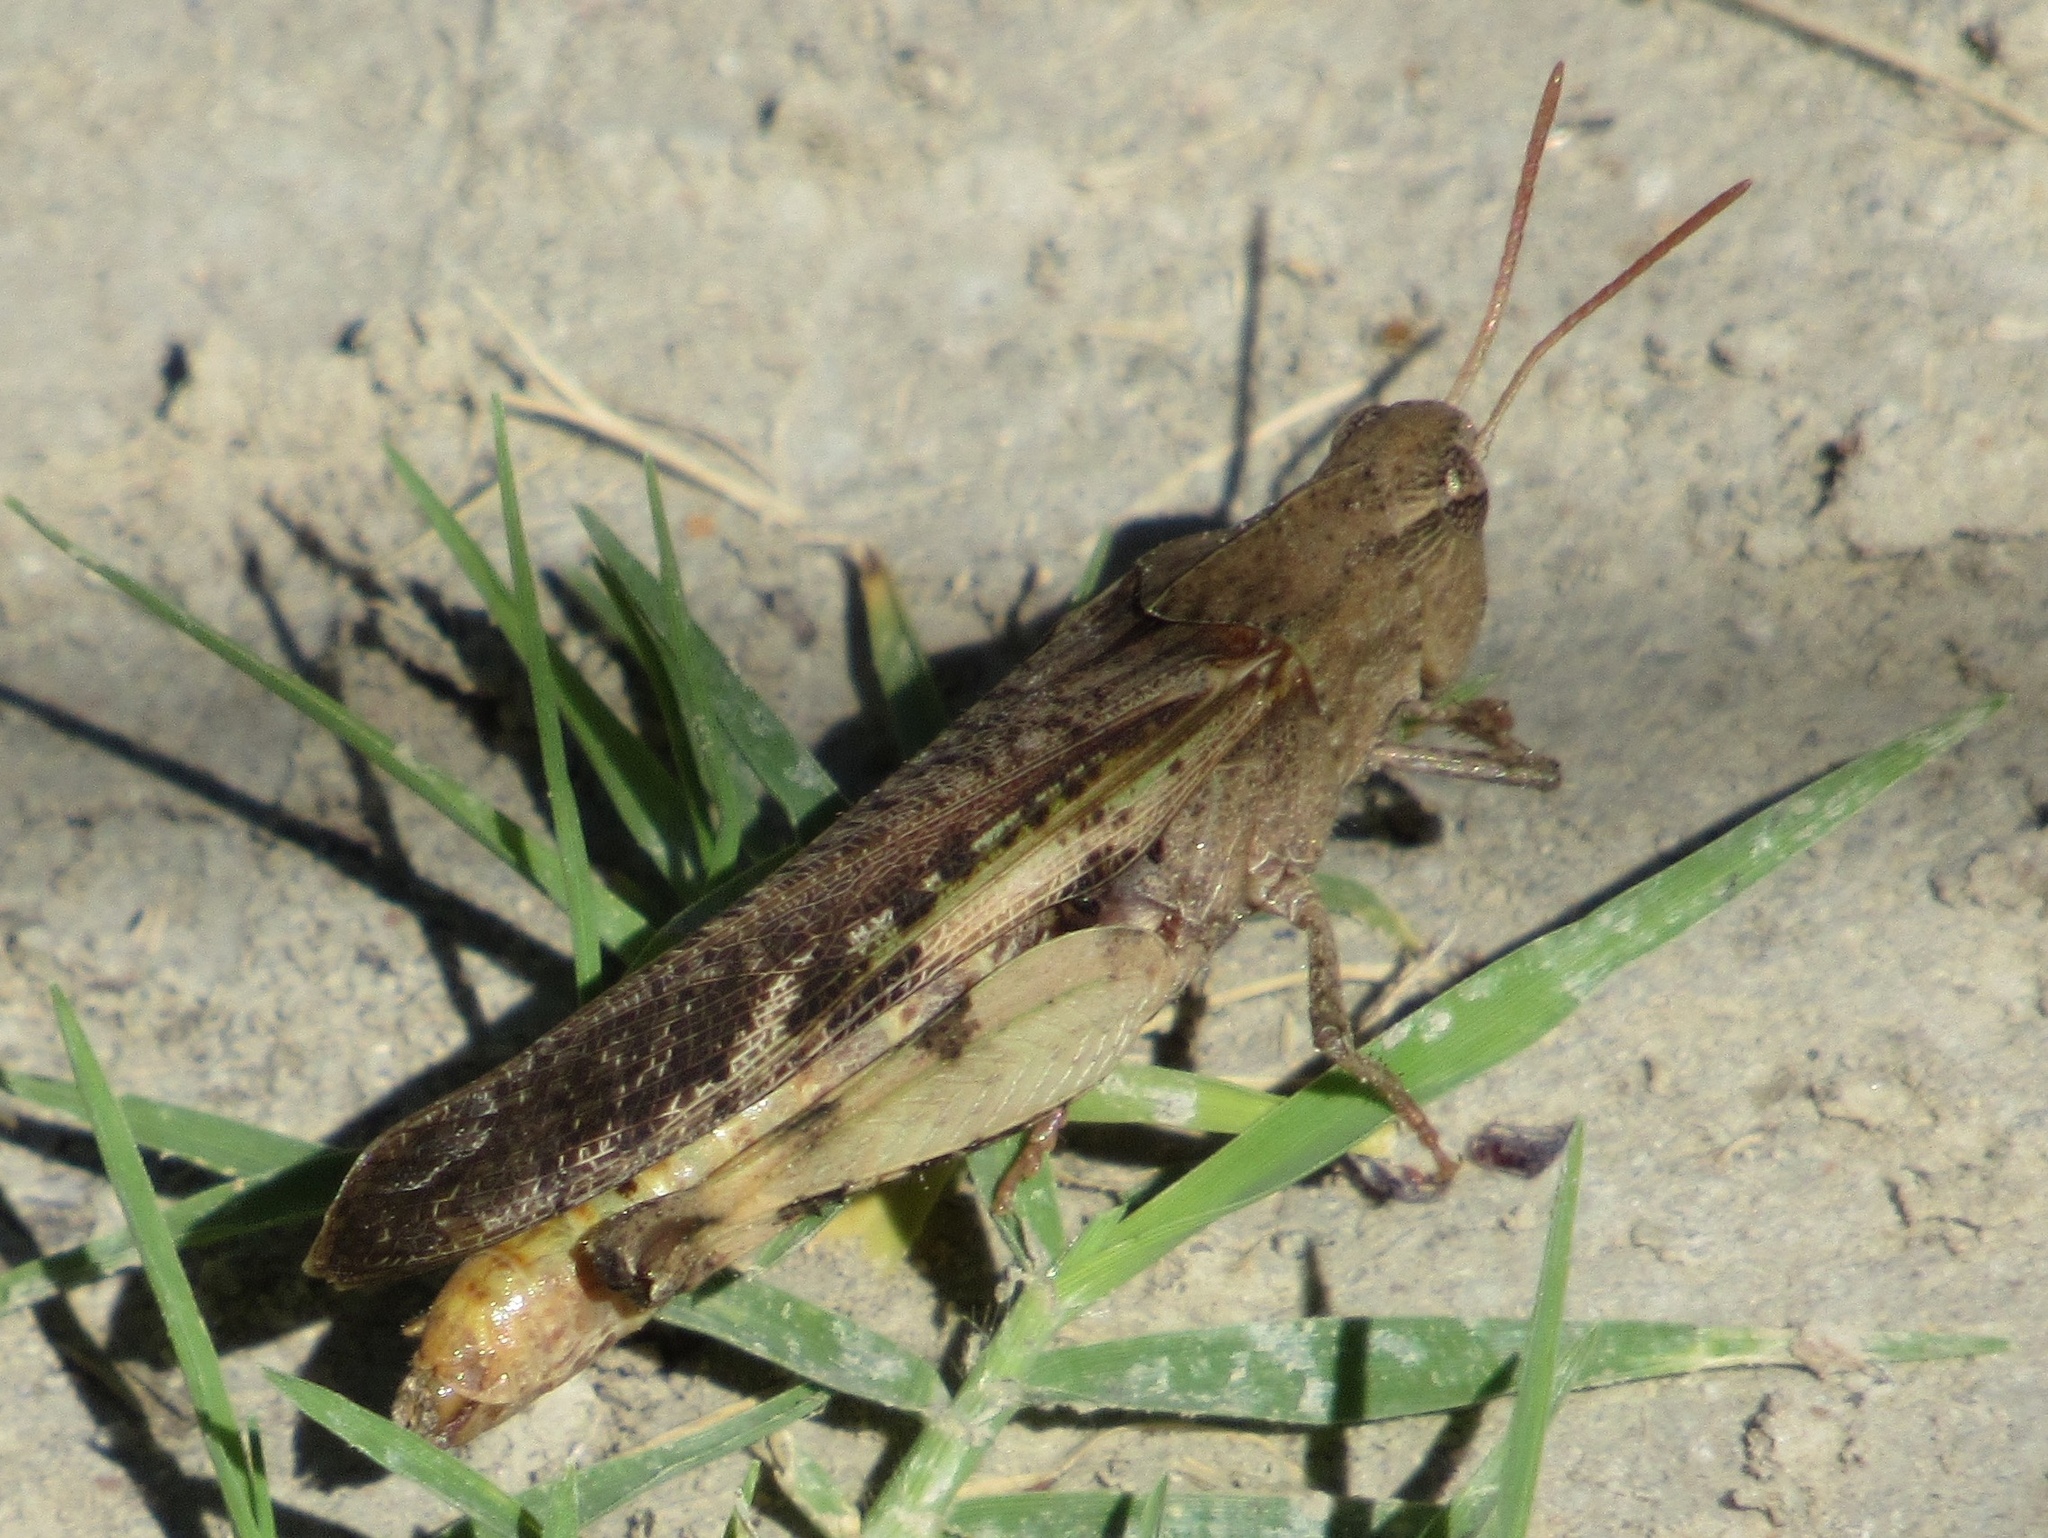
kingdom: Animalia
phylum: Arthropoda
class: Insecta
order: Orthoptera
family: Acrididae
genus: Chortophaga
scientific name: Chortophaga viridifasciata
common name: Green-striped grasshopper
